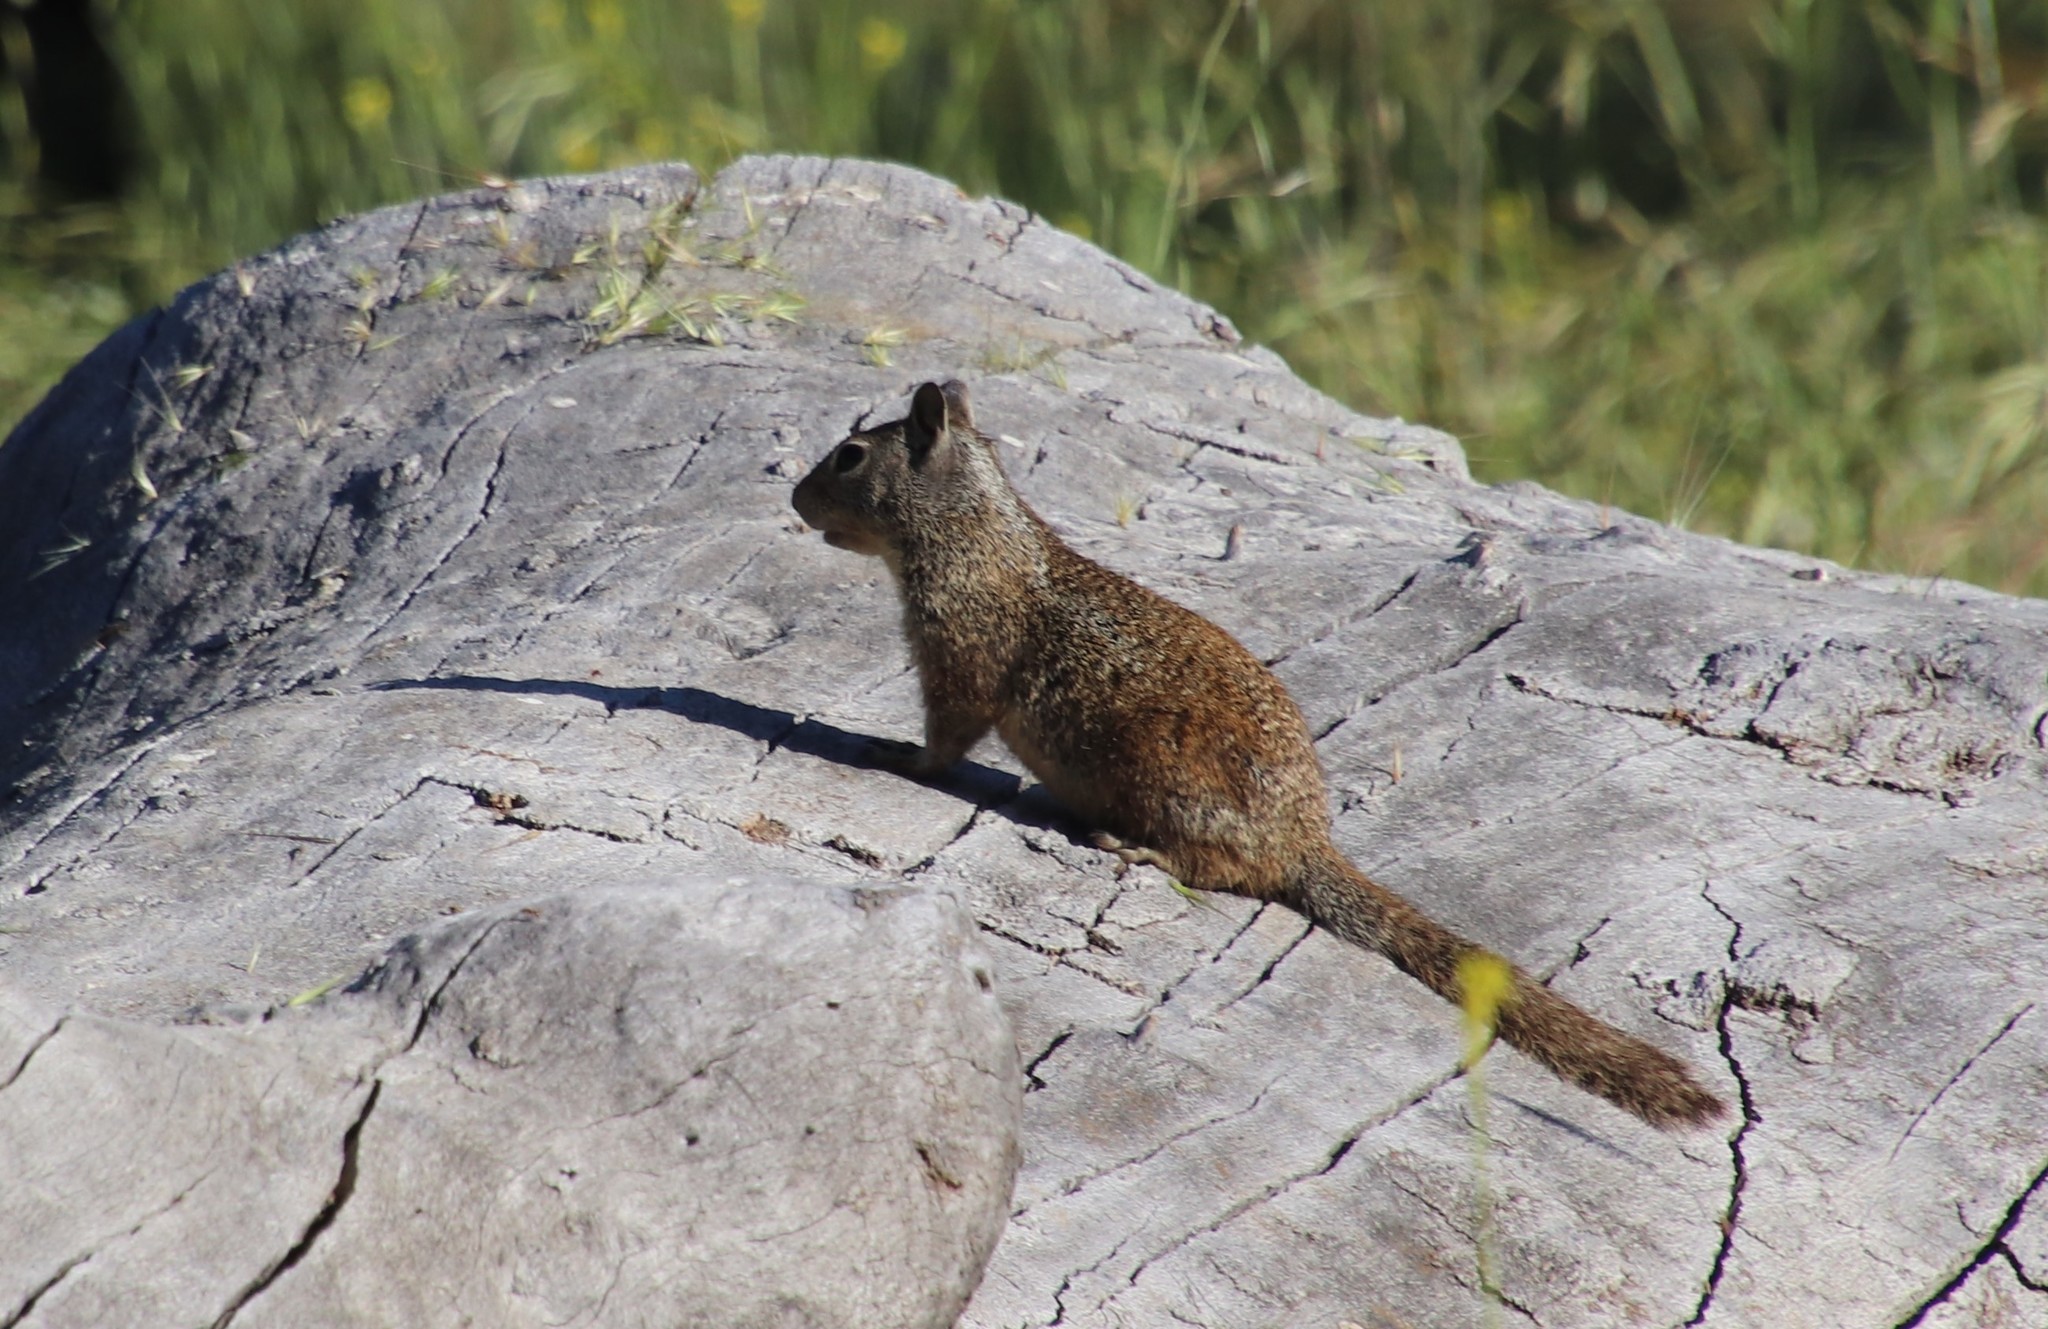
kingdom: Animalia
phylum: Chordata
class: Mammalia
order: Rodentia
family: Sciuridae
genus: Otospermophilus
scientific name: Otospermophilus beecheyi
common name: California ground squirrel
